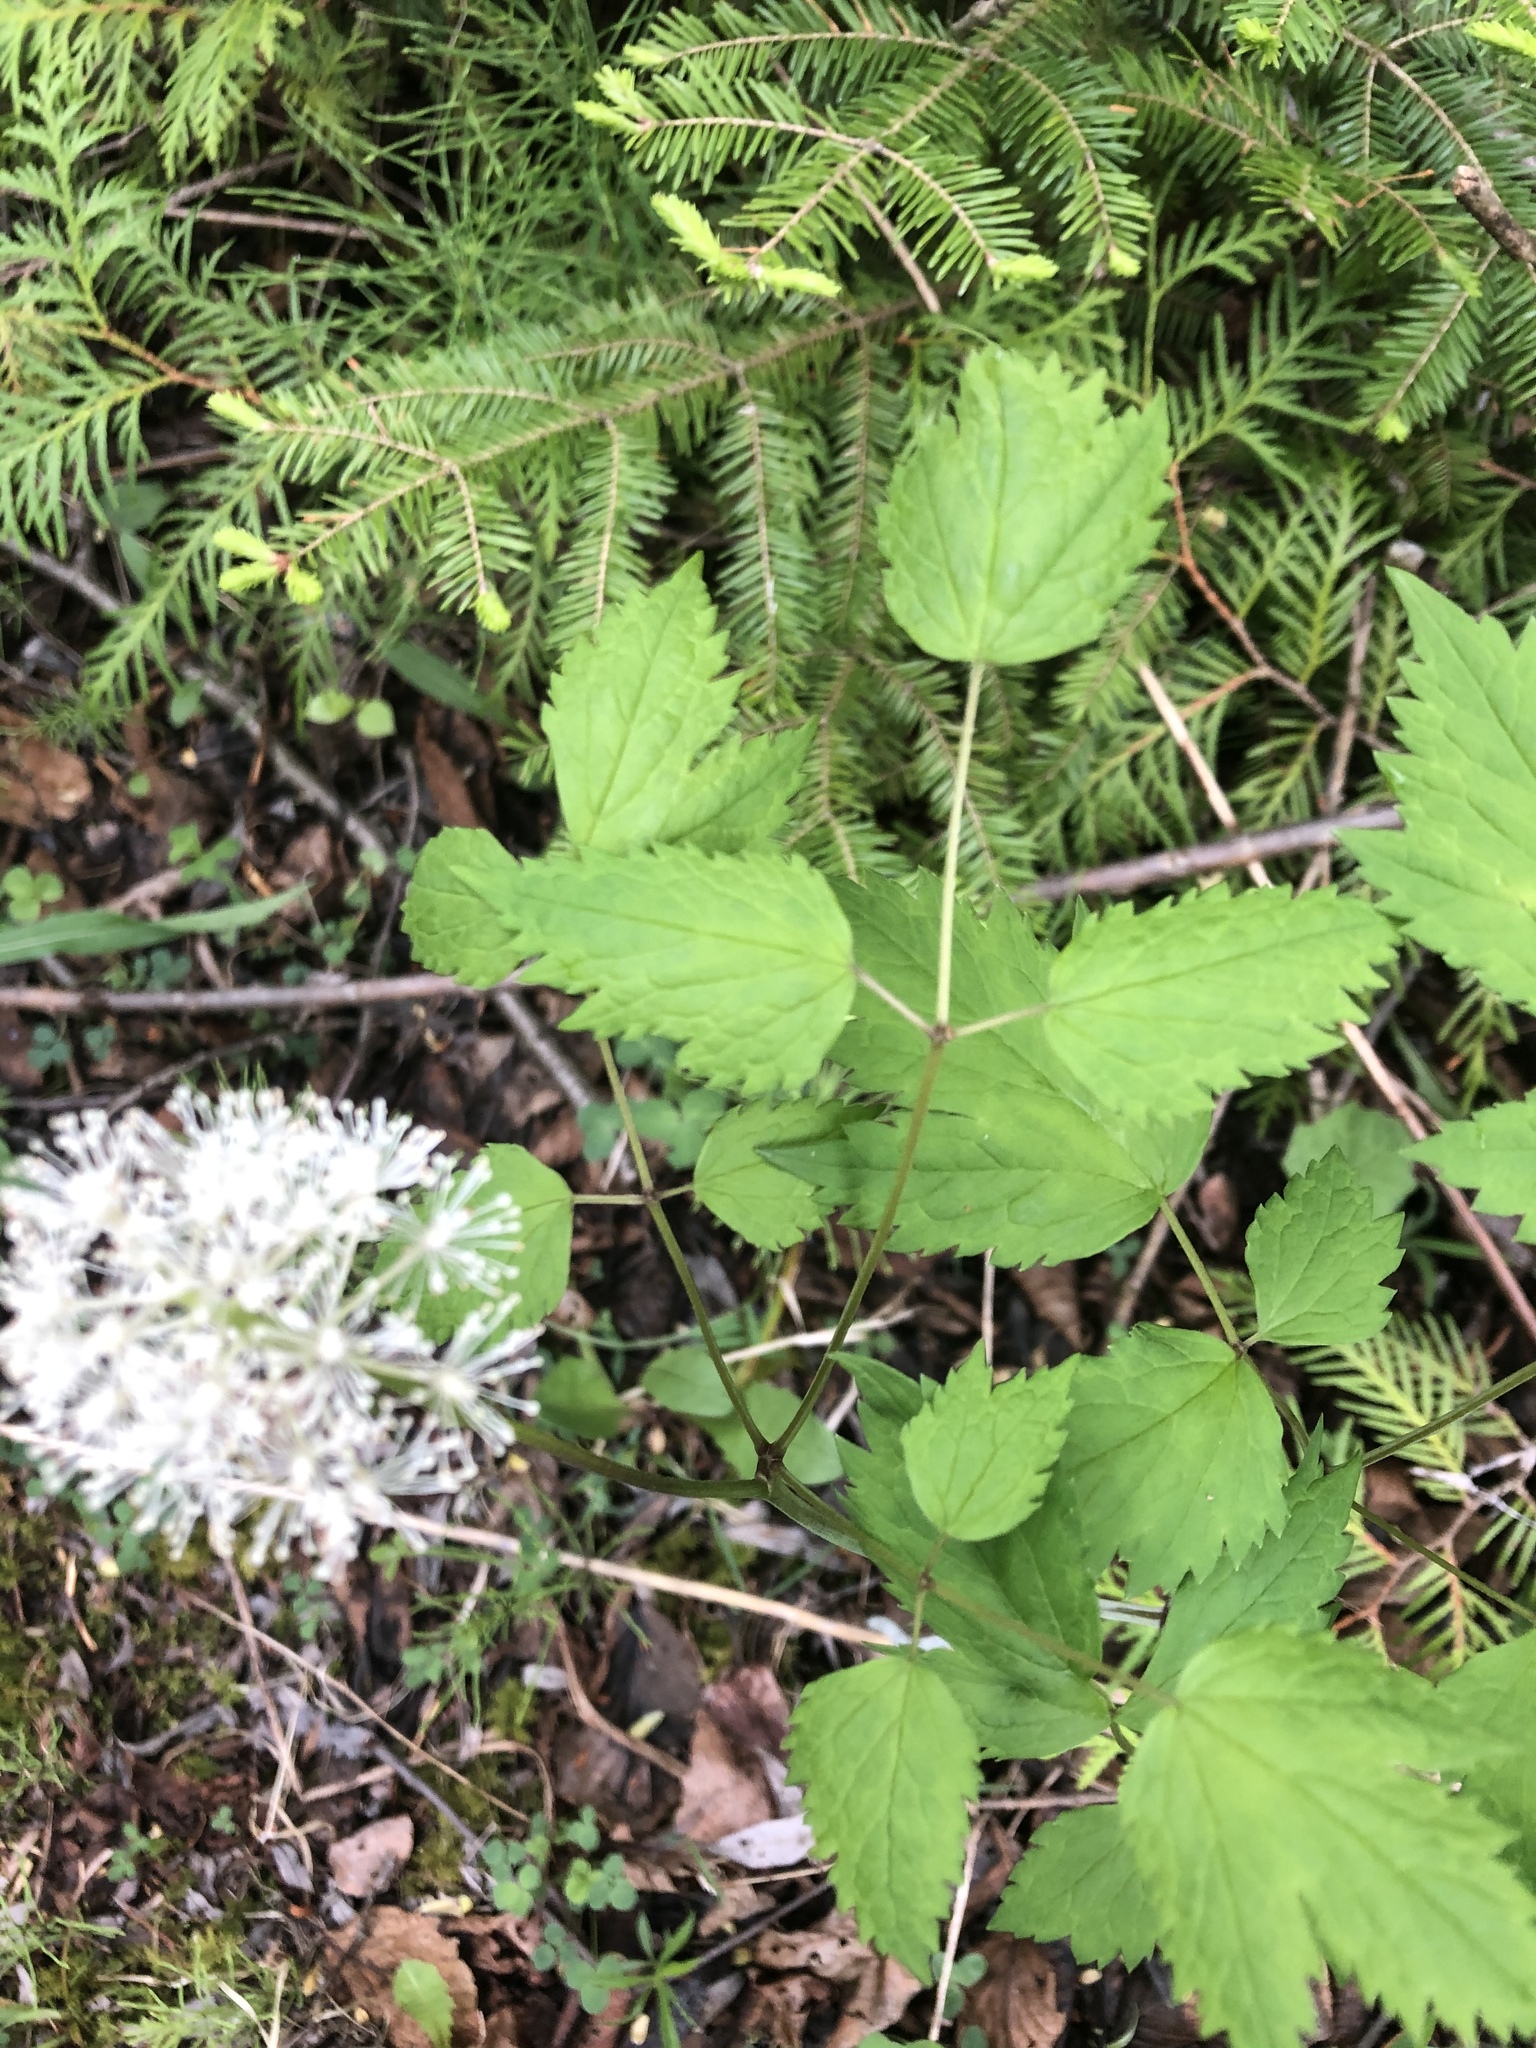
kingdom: Plantae
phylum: Tracheophyta
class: Magnoliopsida
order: Ranunculales
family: Ranunculaceae
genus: Actaea
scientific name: Actaea rubra
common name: Red baneberry
